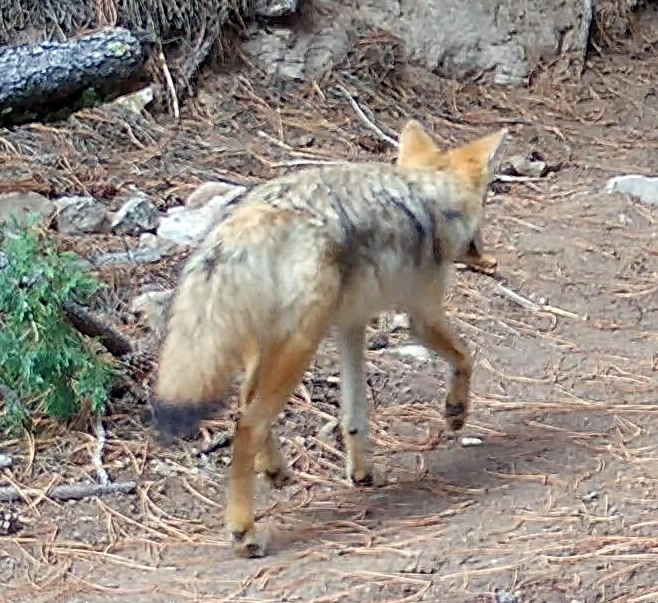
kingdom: Animalia
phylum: Chordata
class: Mammalia
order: Carnivora
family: Canidae
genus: Canis
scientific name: Canis latrans
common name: Coyote
